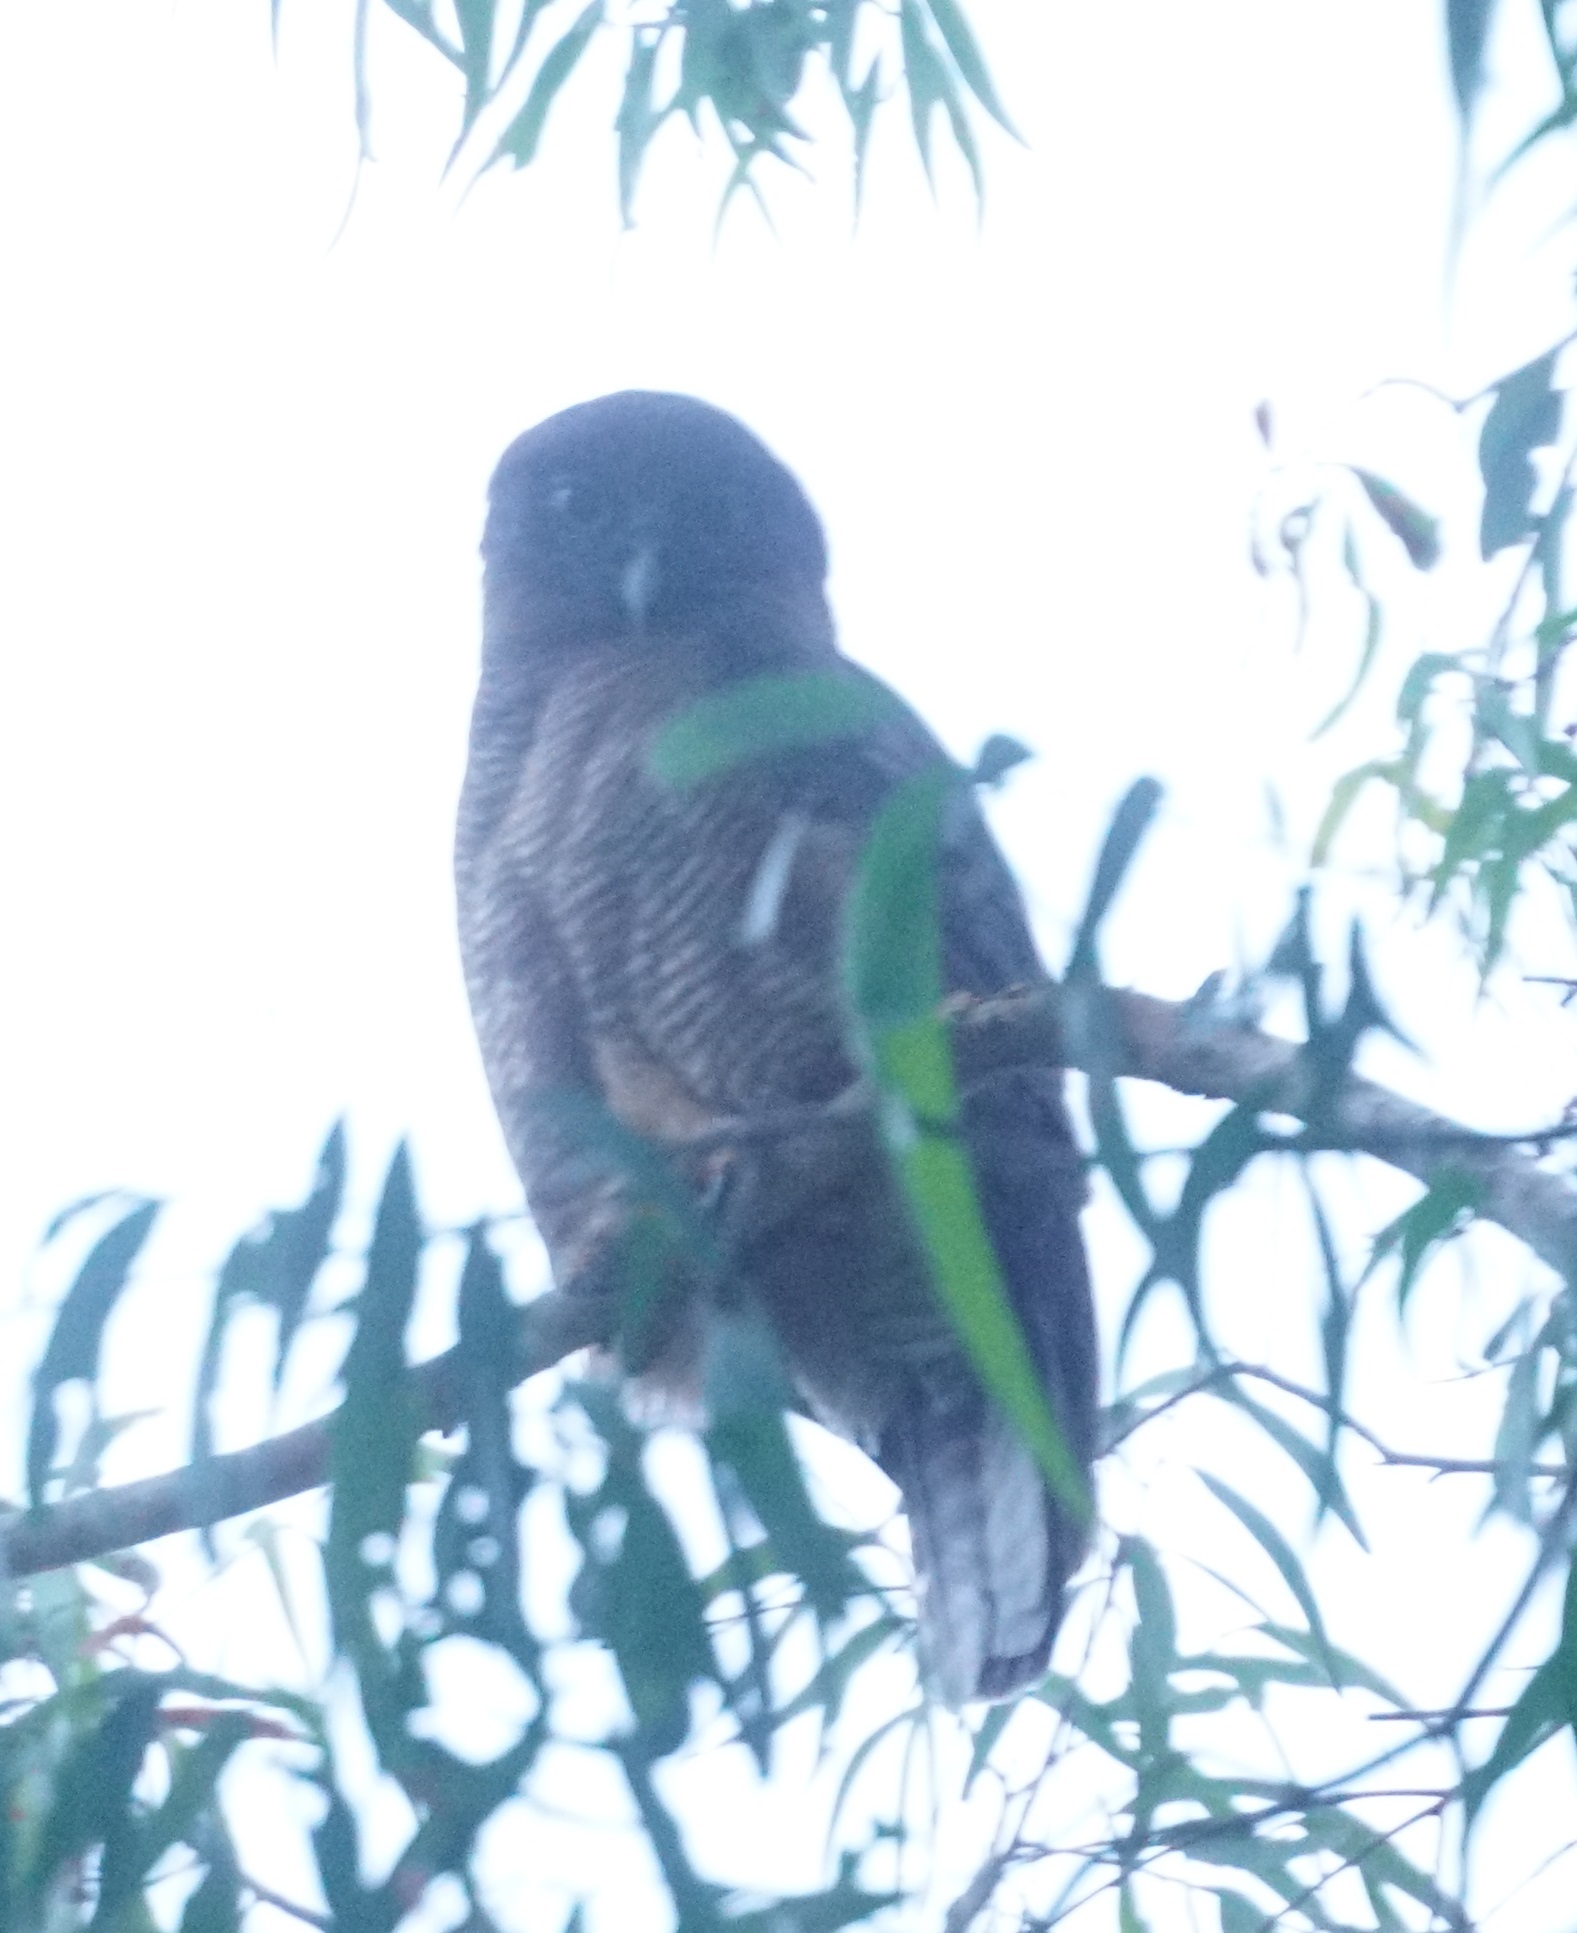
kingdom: Animalia
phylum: Chordata
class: Aves
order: Strigiformes
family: Strigidae
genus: Ninox
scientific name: Ninox rufa
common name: Rufous owl
